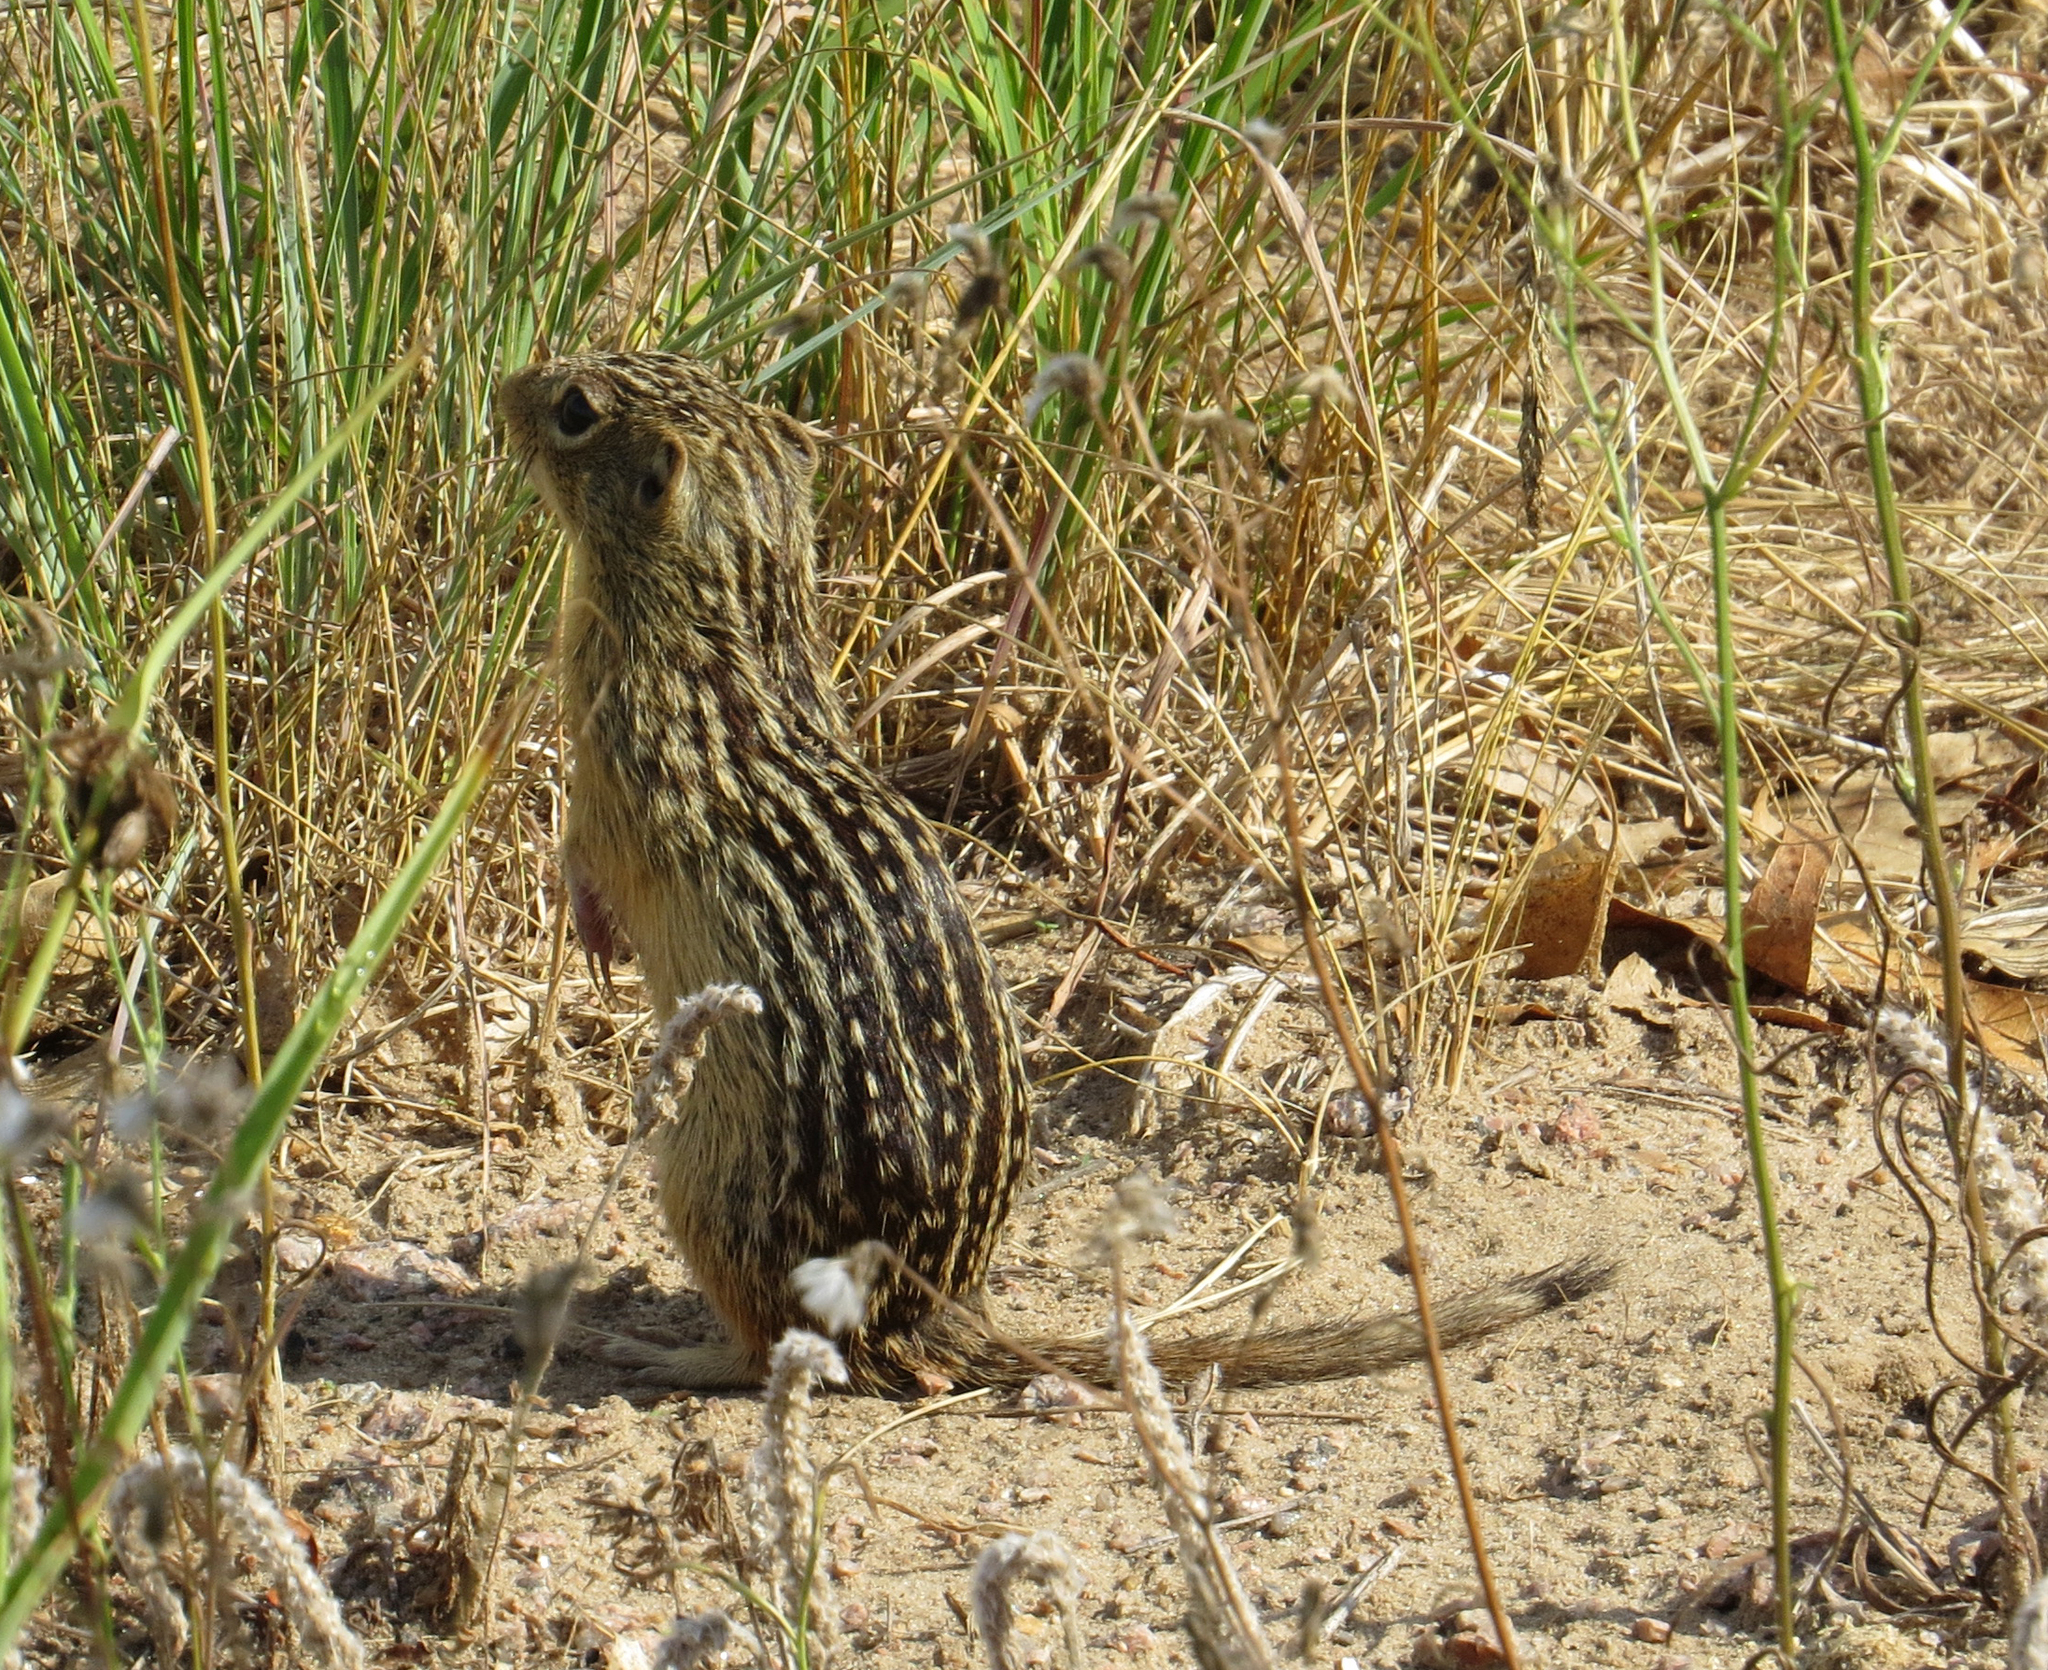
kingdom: Animalia
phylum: Chordata
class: Mammalia
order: Rodentia
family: Sciuridae
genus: Ictidomys
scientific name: Ictidomys tridecemlineatus
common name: Thirteen-lined ground squirrel
